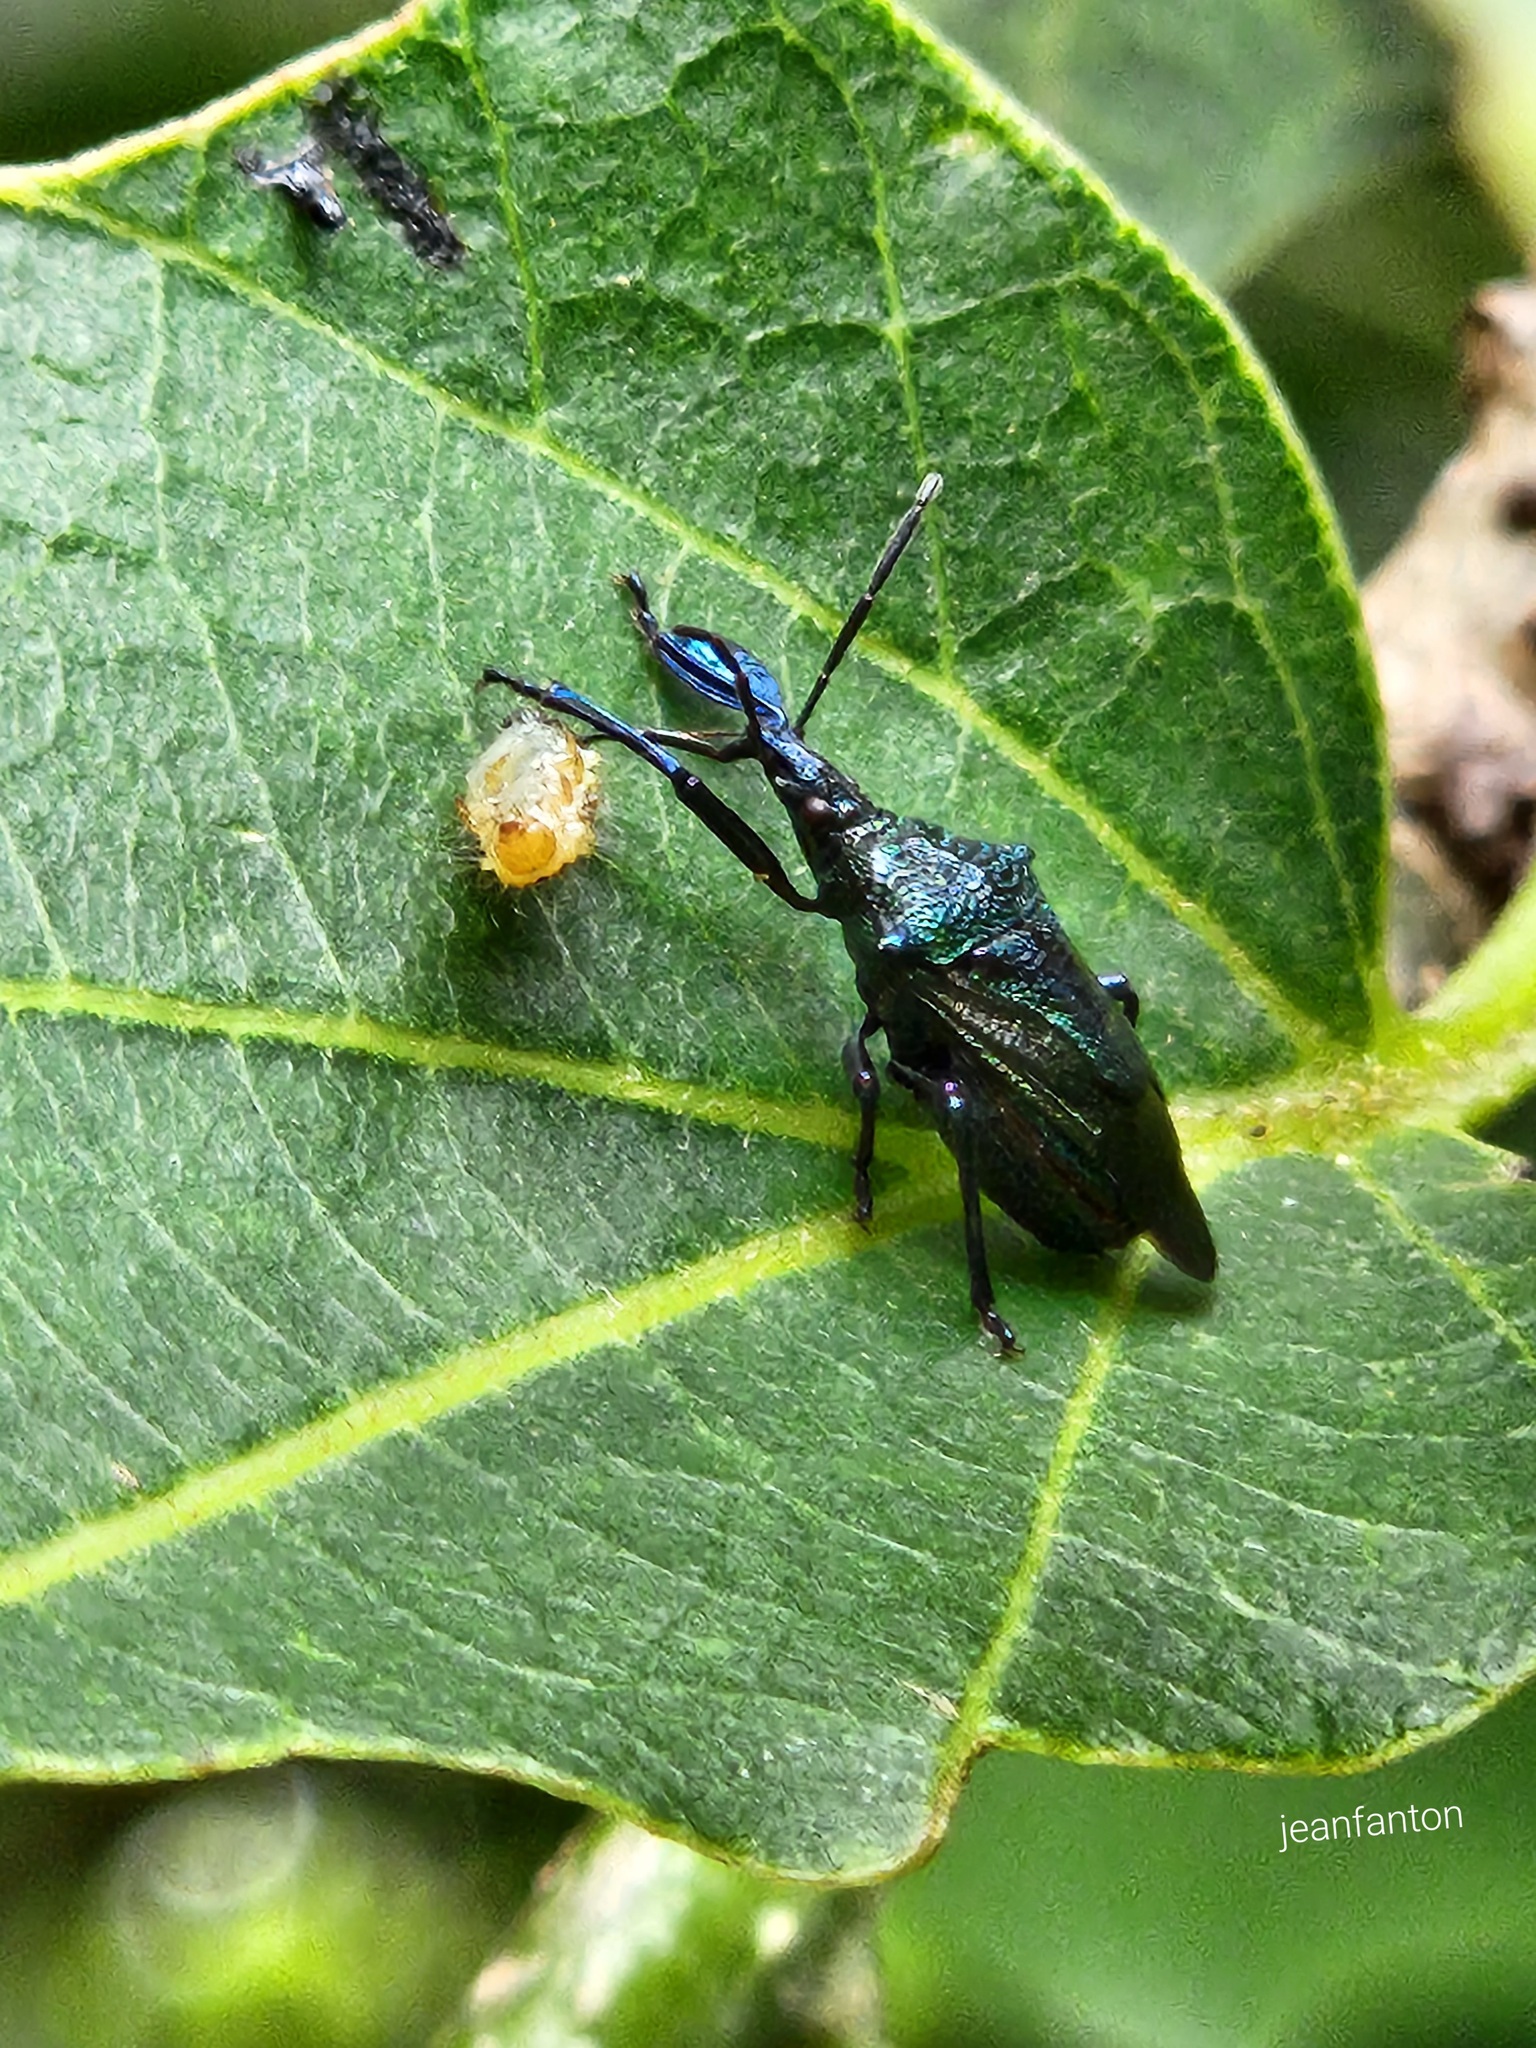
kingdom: Animalia
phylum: Arthropoda
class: Insecta
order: Hemiptera
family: Pentatomidae
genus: Heteroscelis
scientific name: Heteroscelis servillii
